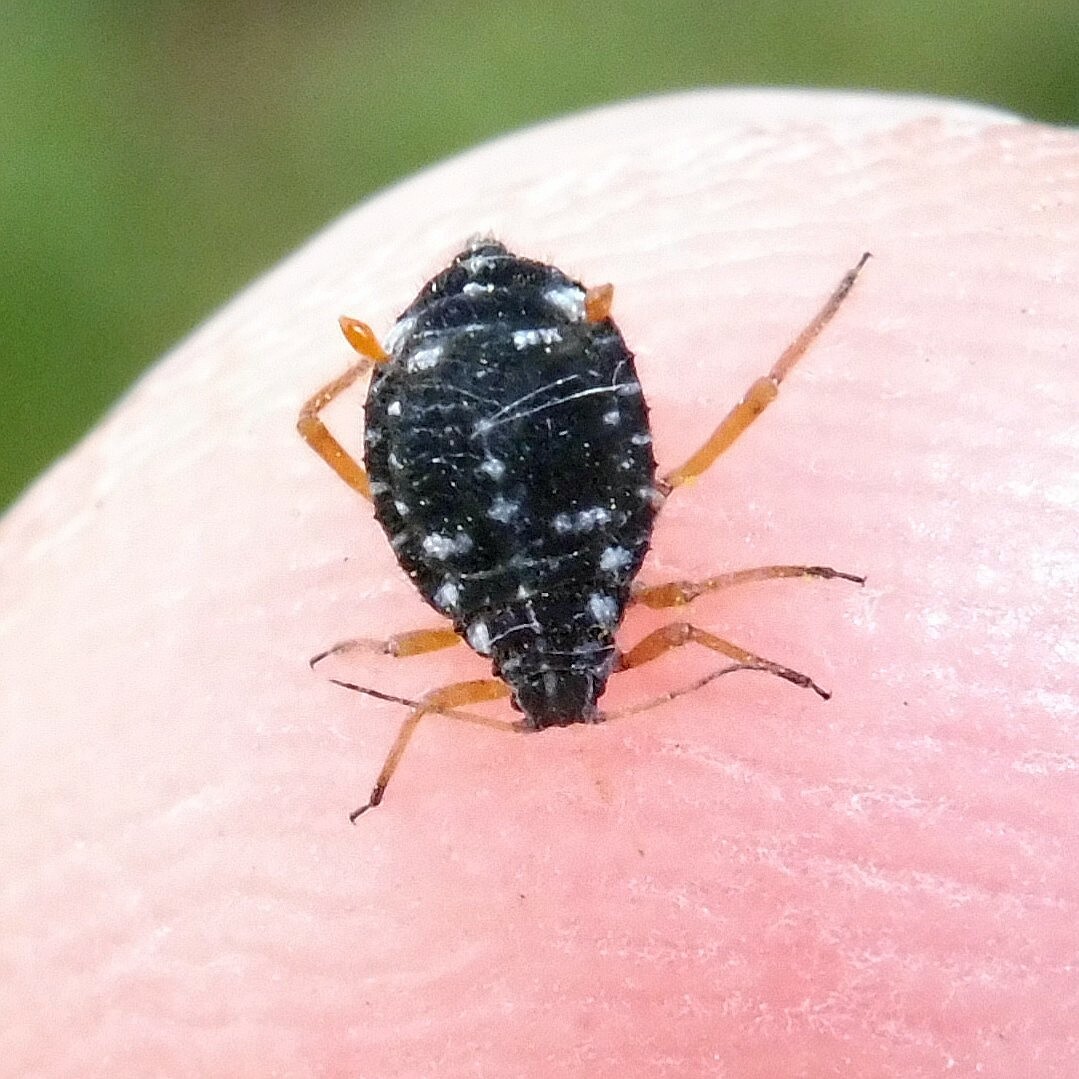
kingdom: Animalia
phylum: Arthropoda
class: Insecta
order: Hemiptera
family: Aphididae
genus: Pterocomma
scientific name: Pterocomma salicis
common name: Aphid
